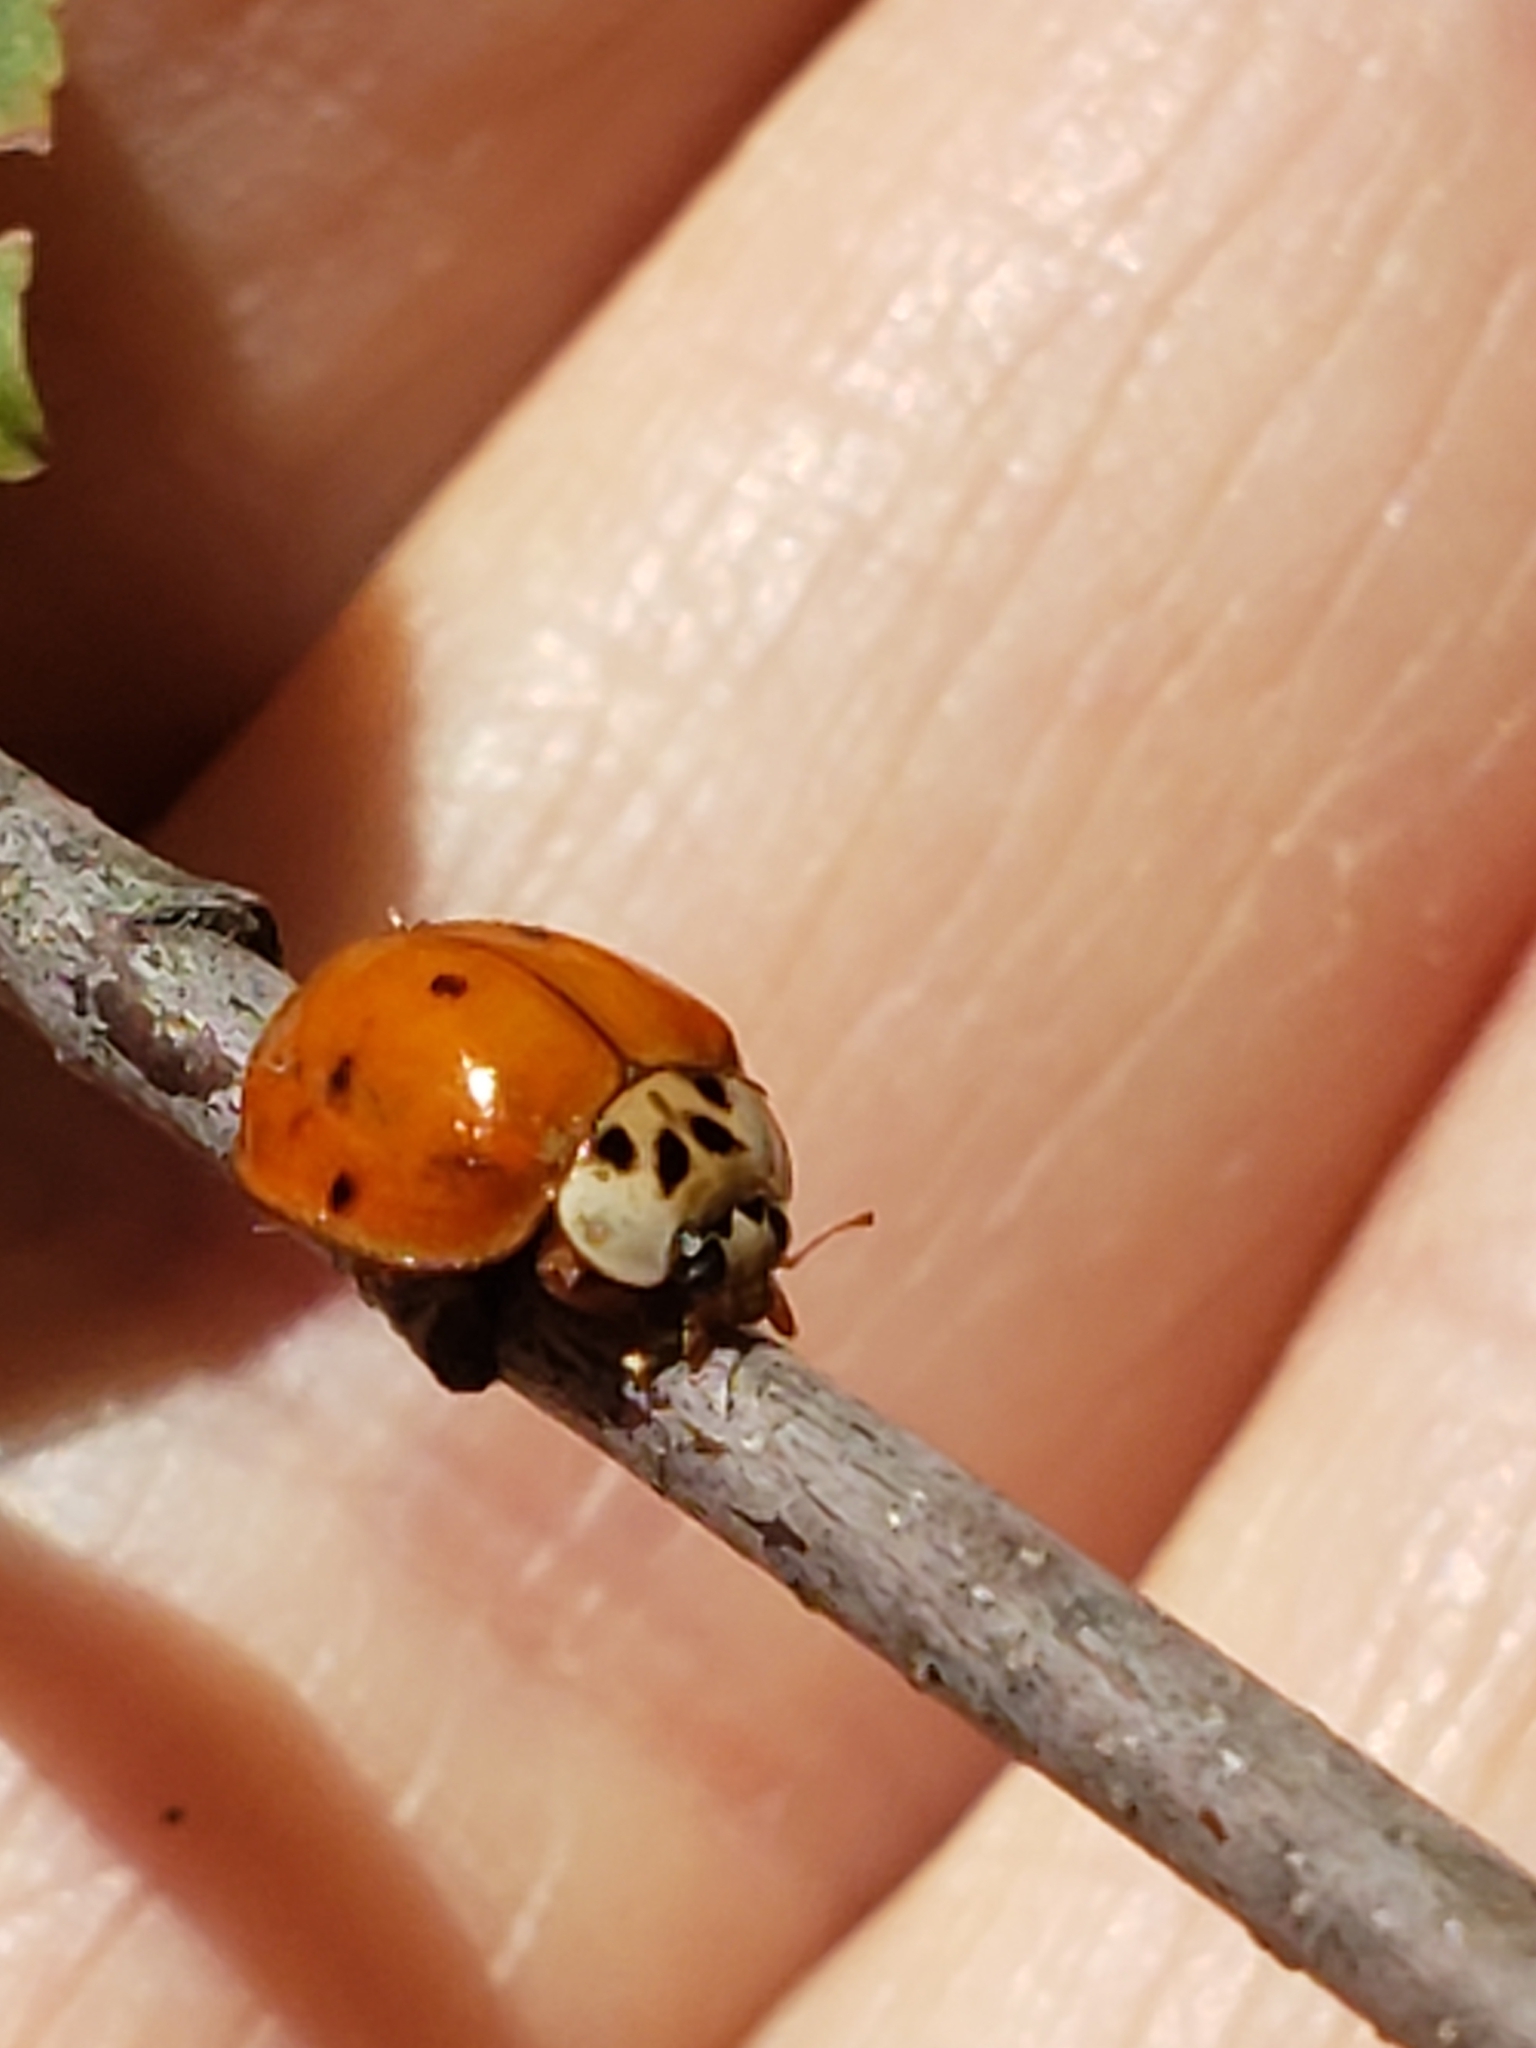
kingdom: Animalia
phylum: Arthropoda
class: Insecta
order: Coleoptera
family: Coccinellidae
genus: Harmonia
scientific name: Harmonia axyridis
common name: Harlequin ladybird
